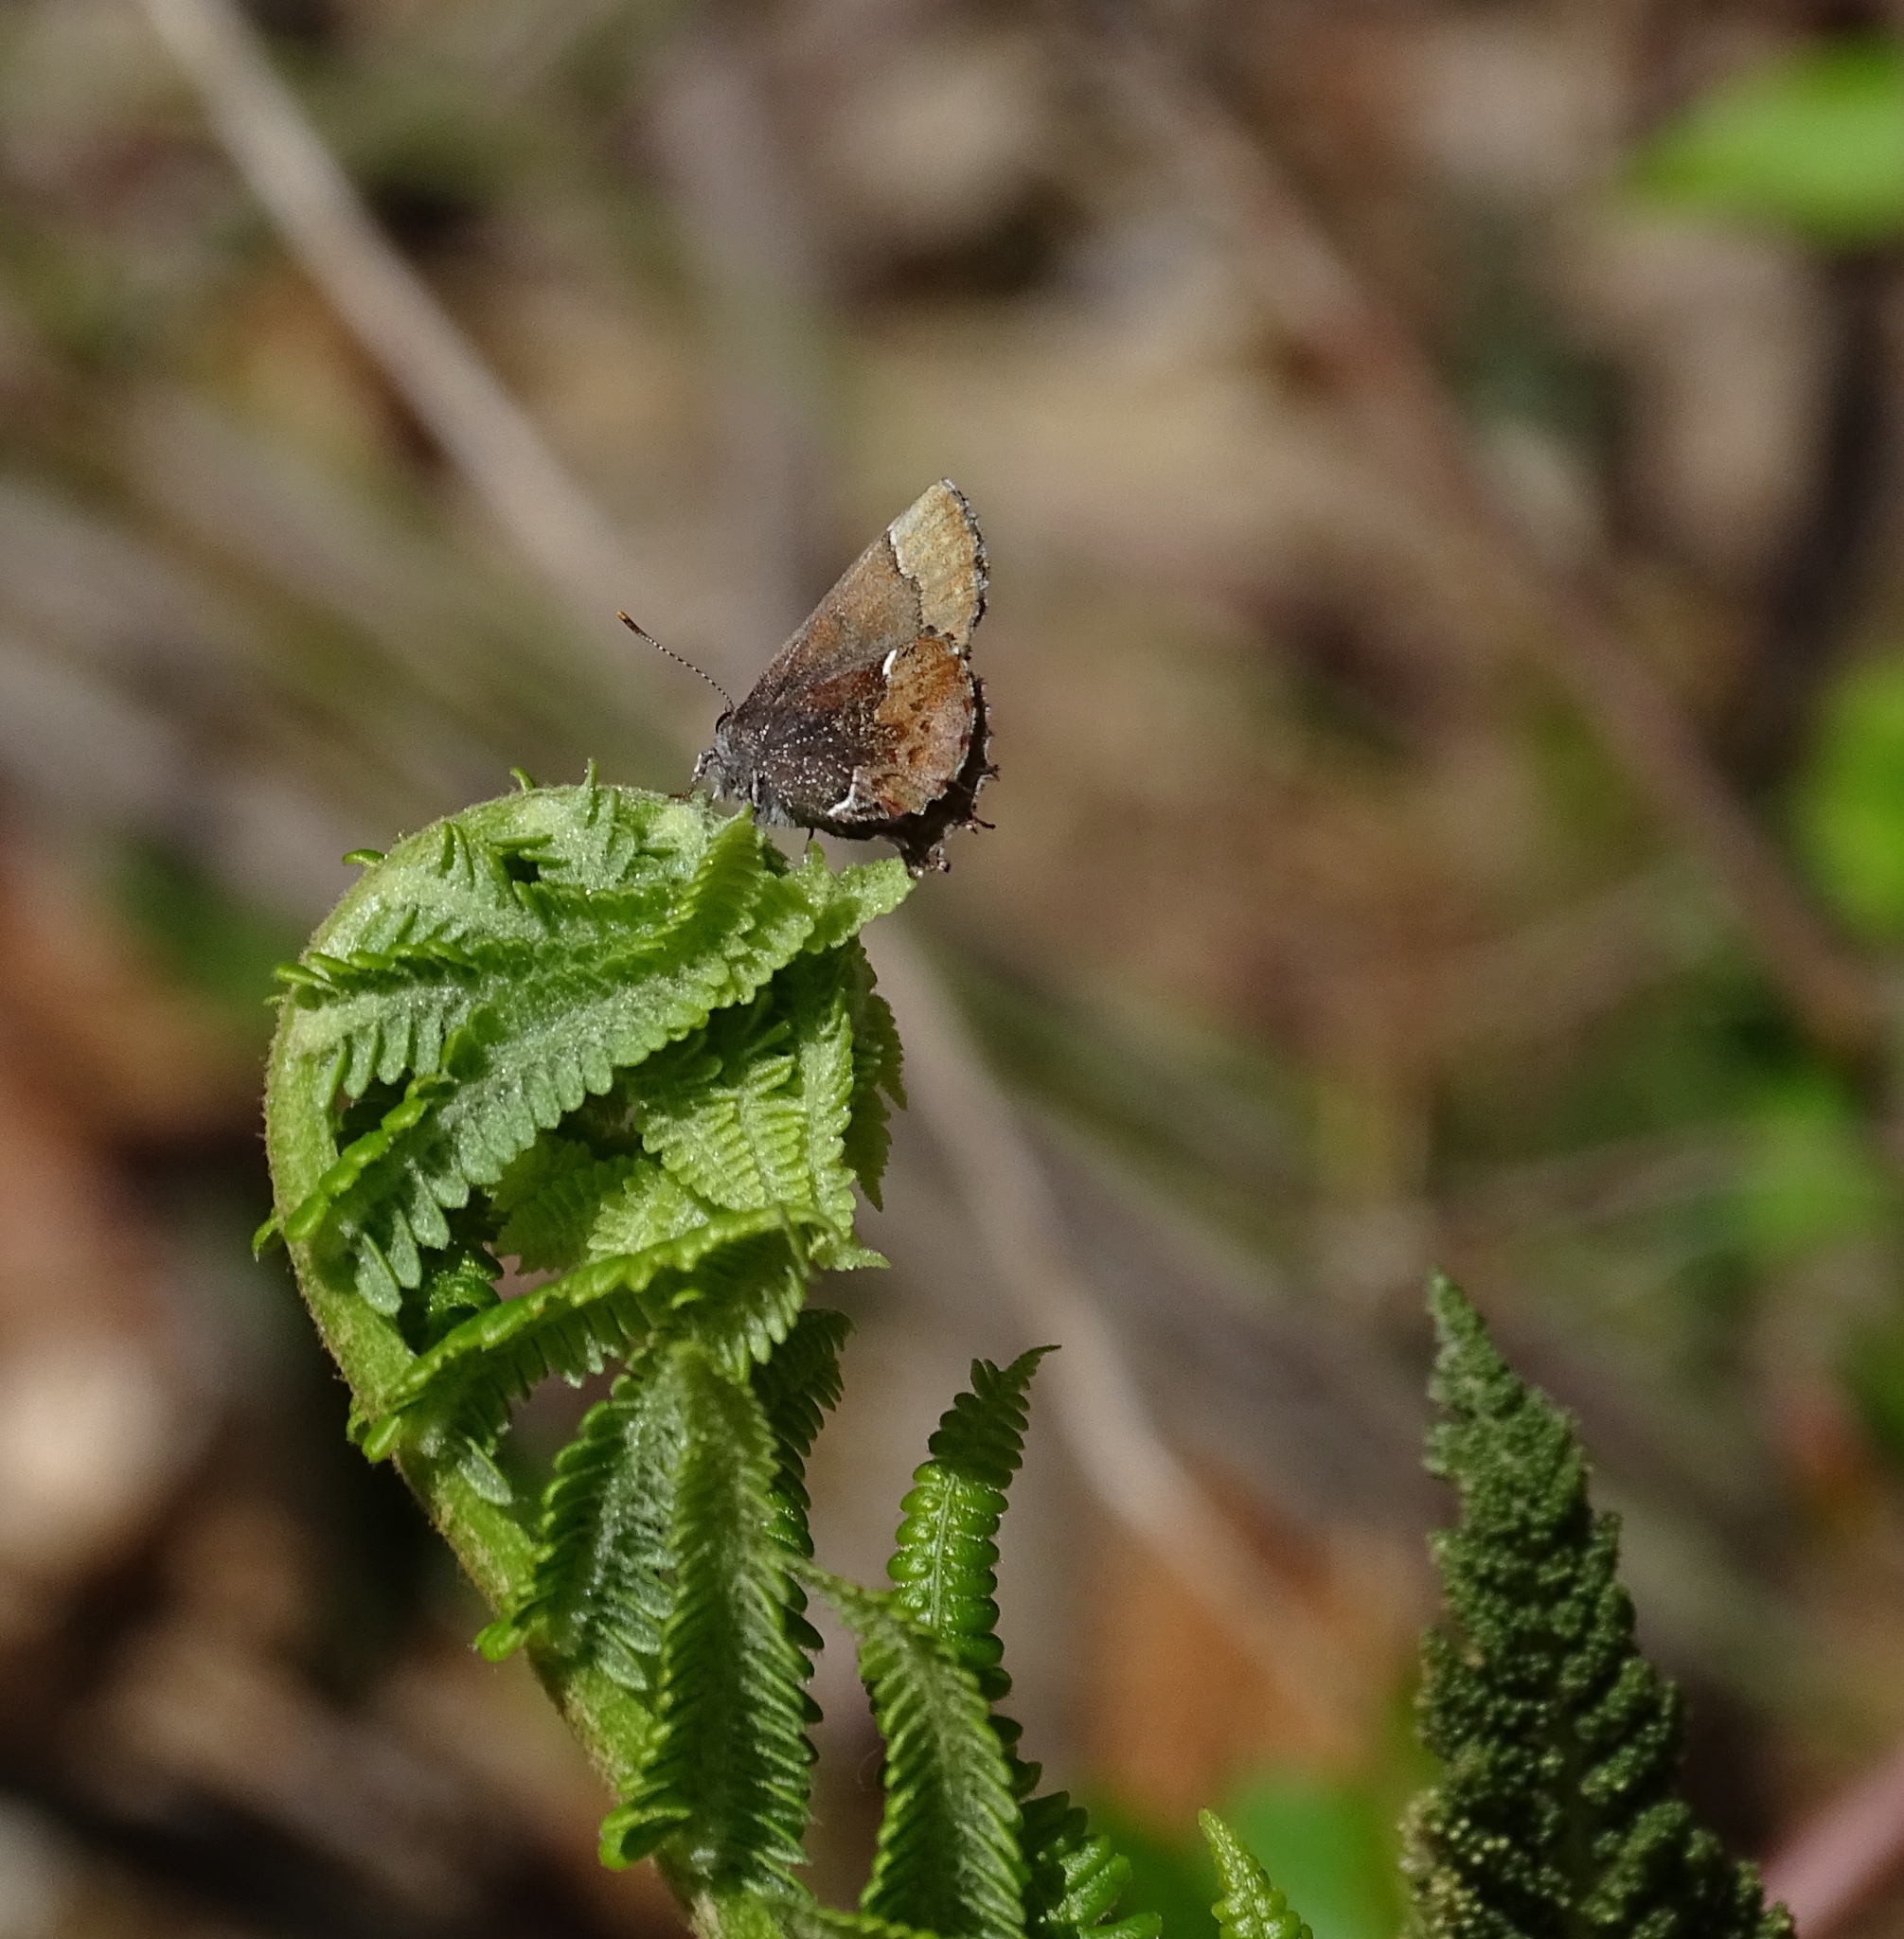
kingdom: Animalia
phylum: Arthropoda
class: Insecta
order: Lepidoptera
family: Lycaenidae
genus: Incisalia
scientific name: Incisalia henrici
